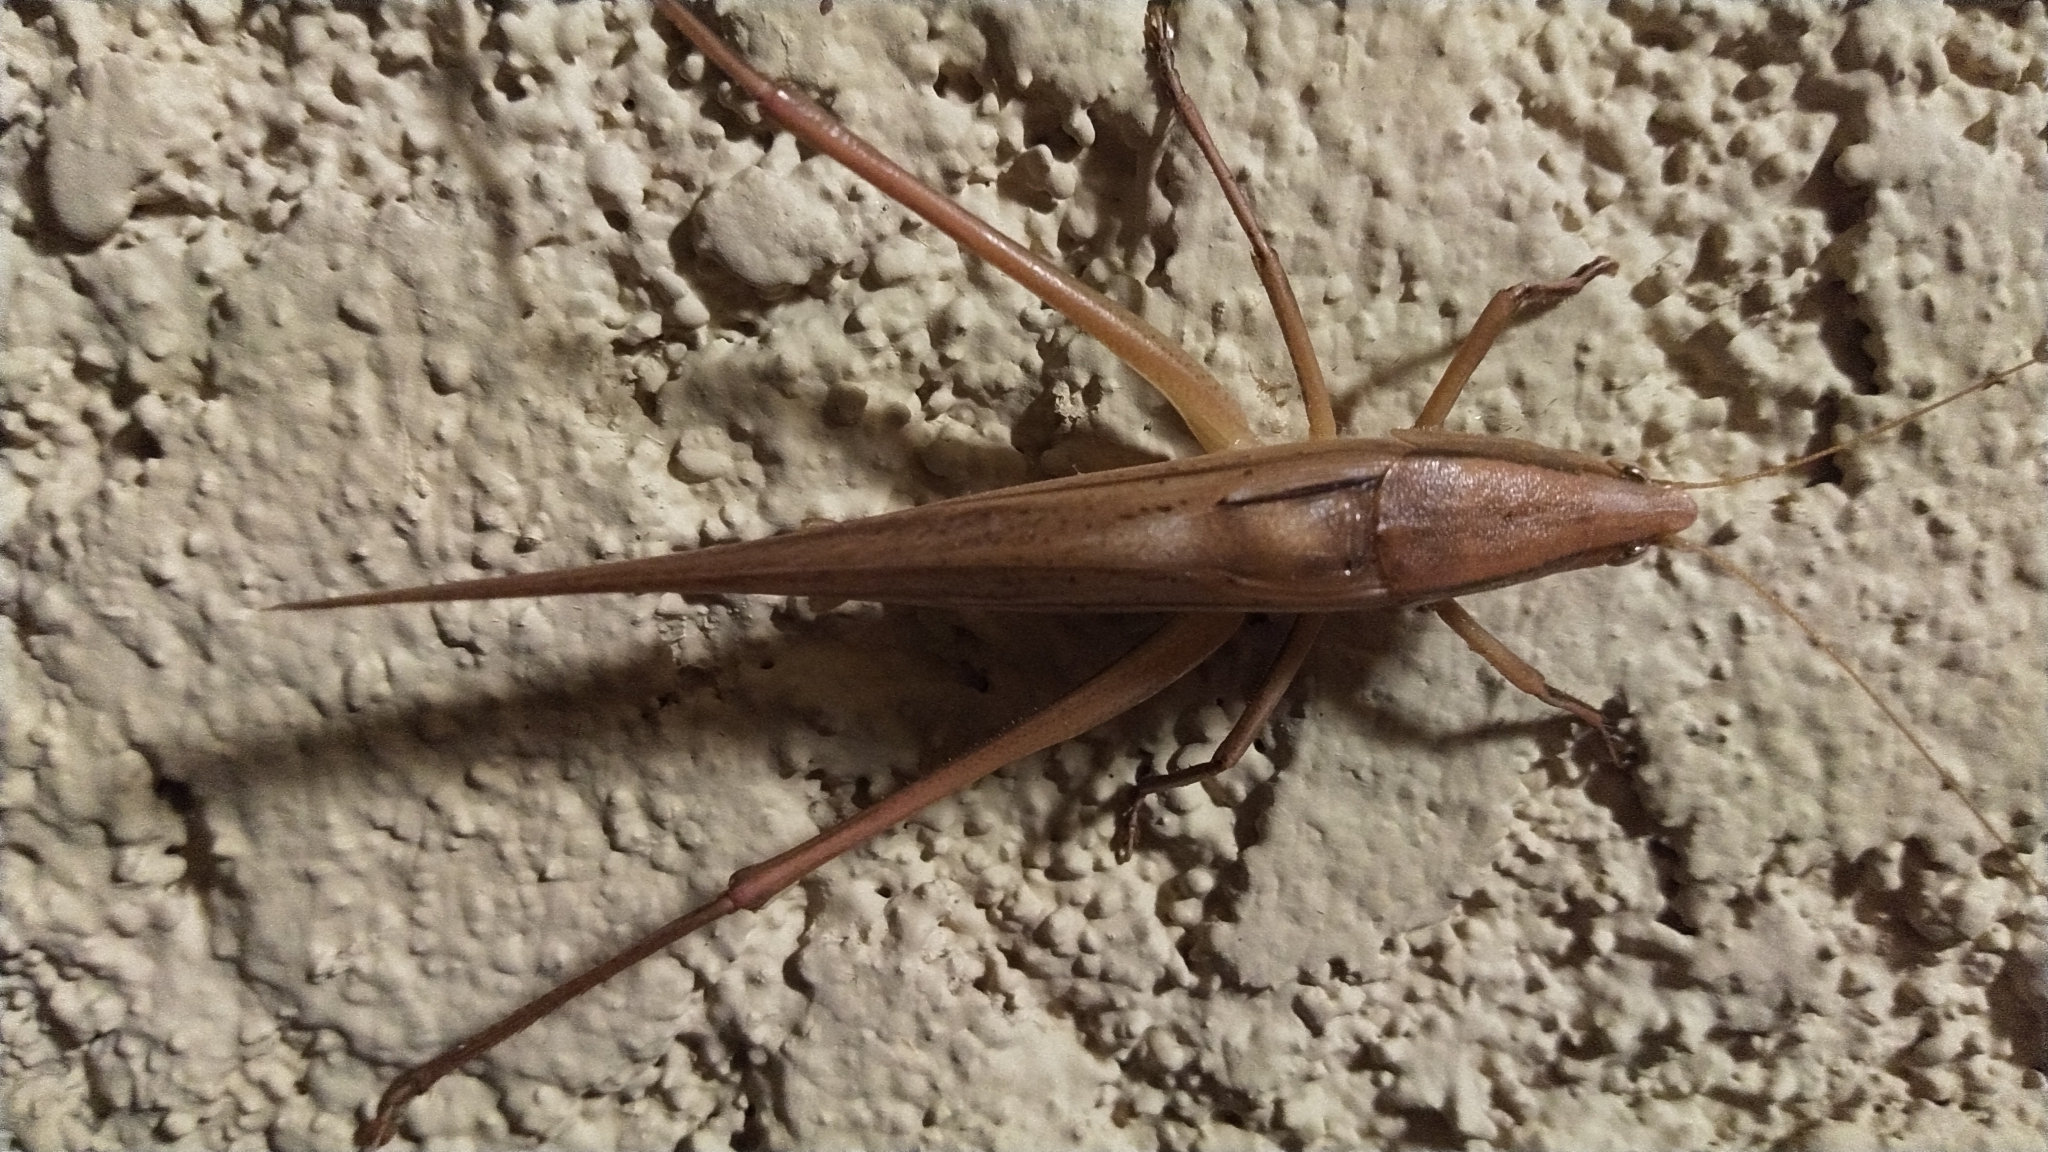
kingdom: Animalia
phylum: Arthropoda
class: Insecta
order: Orthoptera
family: Tettigoniidae
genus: Neoconocephalus
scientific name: Neoconocephalus triops
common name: Broad-tipped conehead
